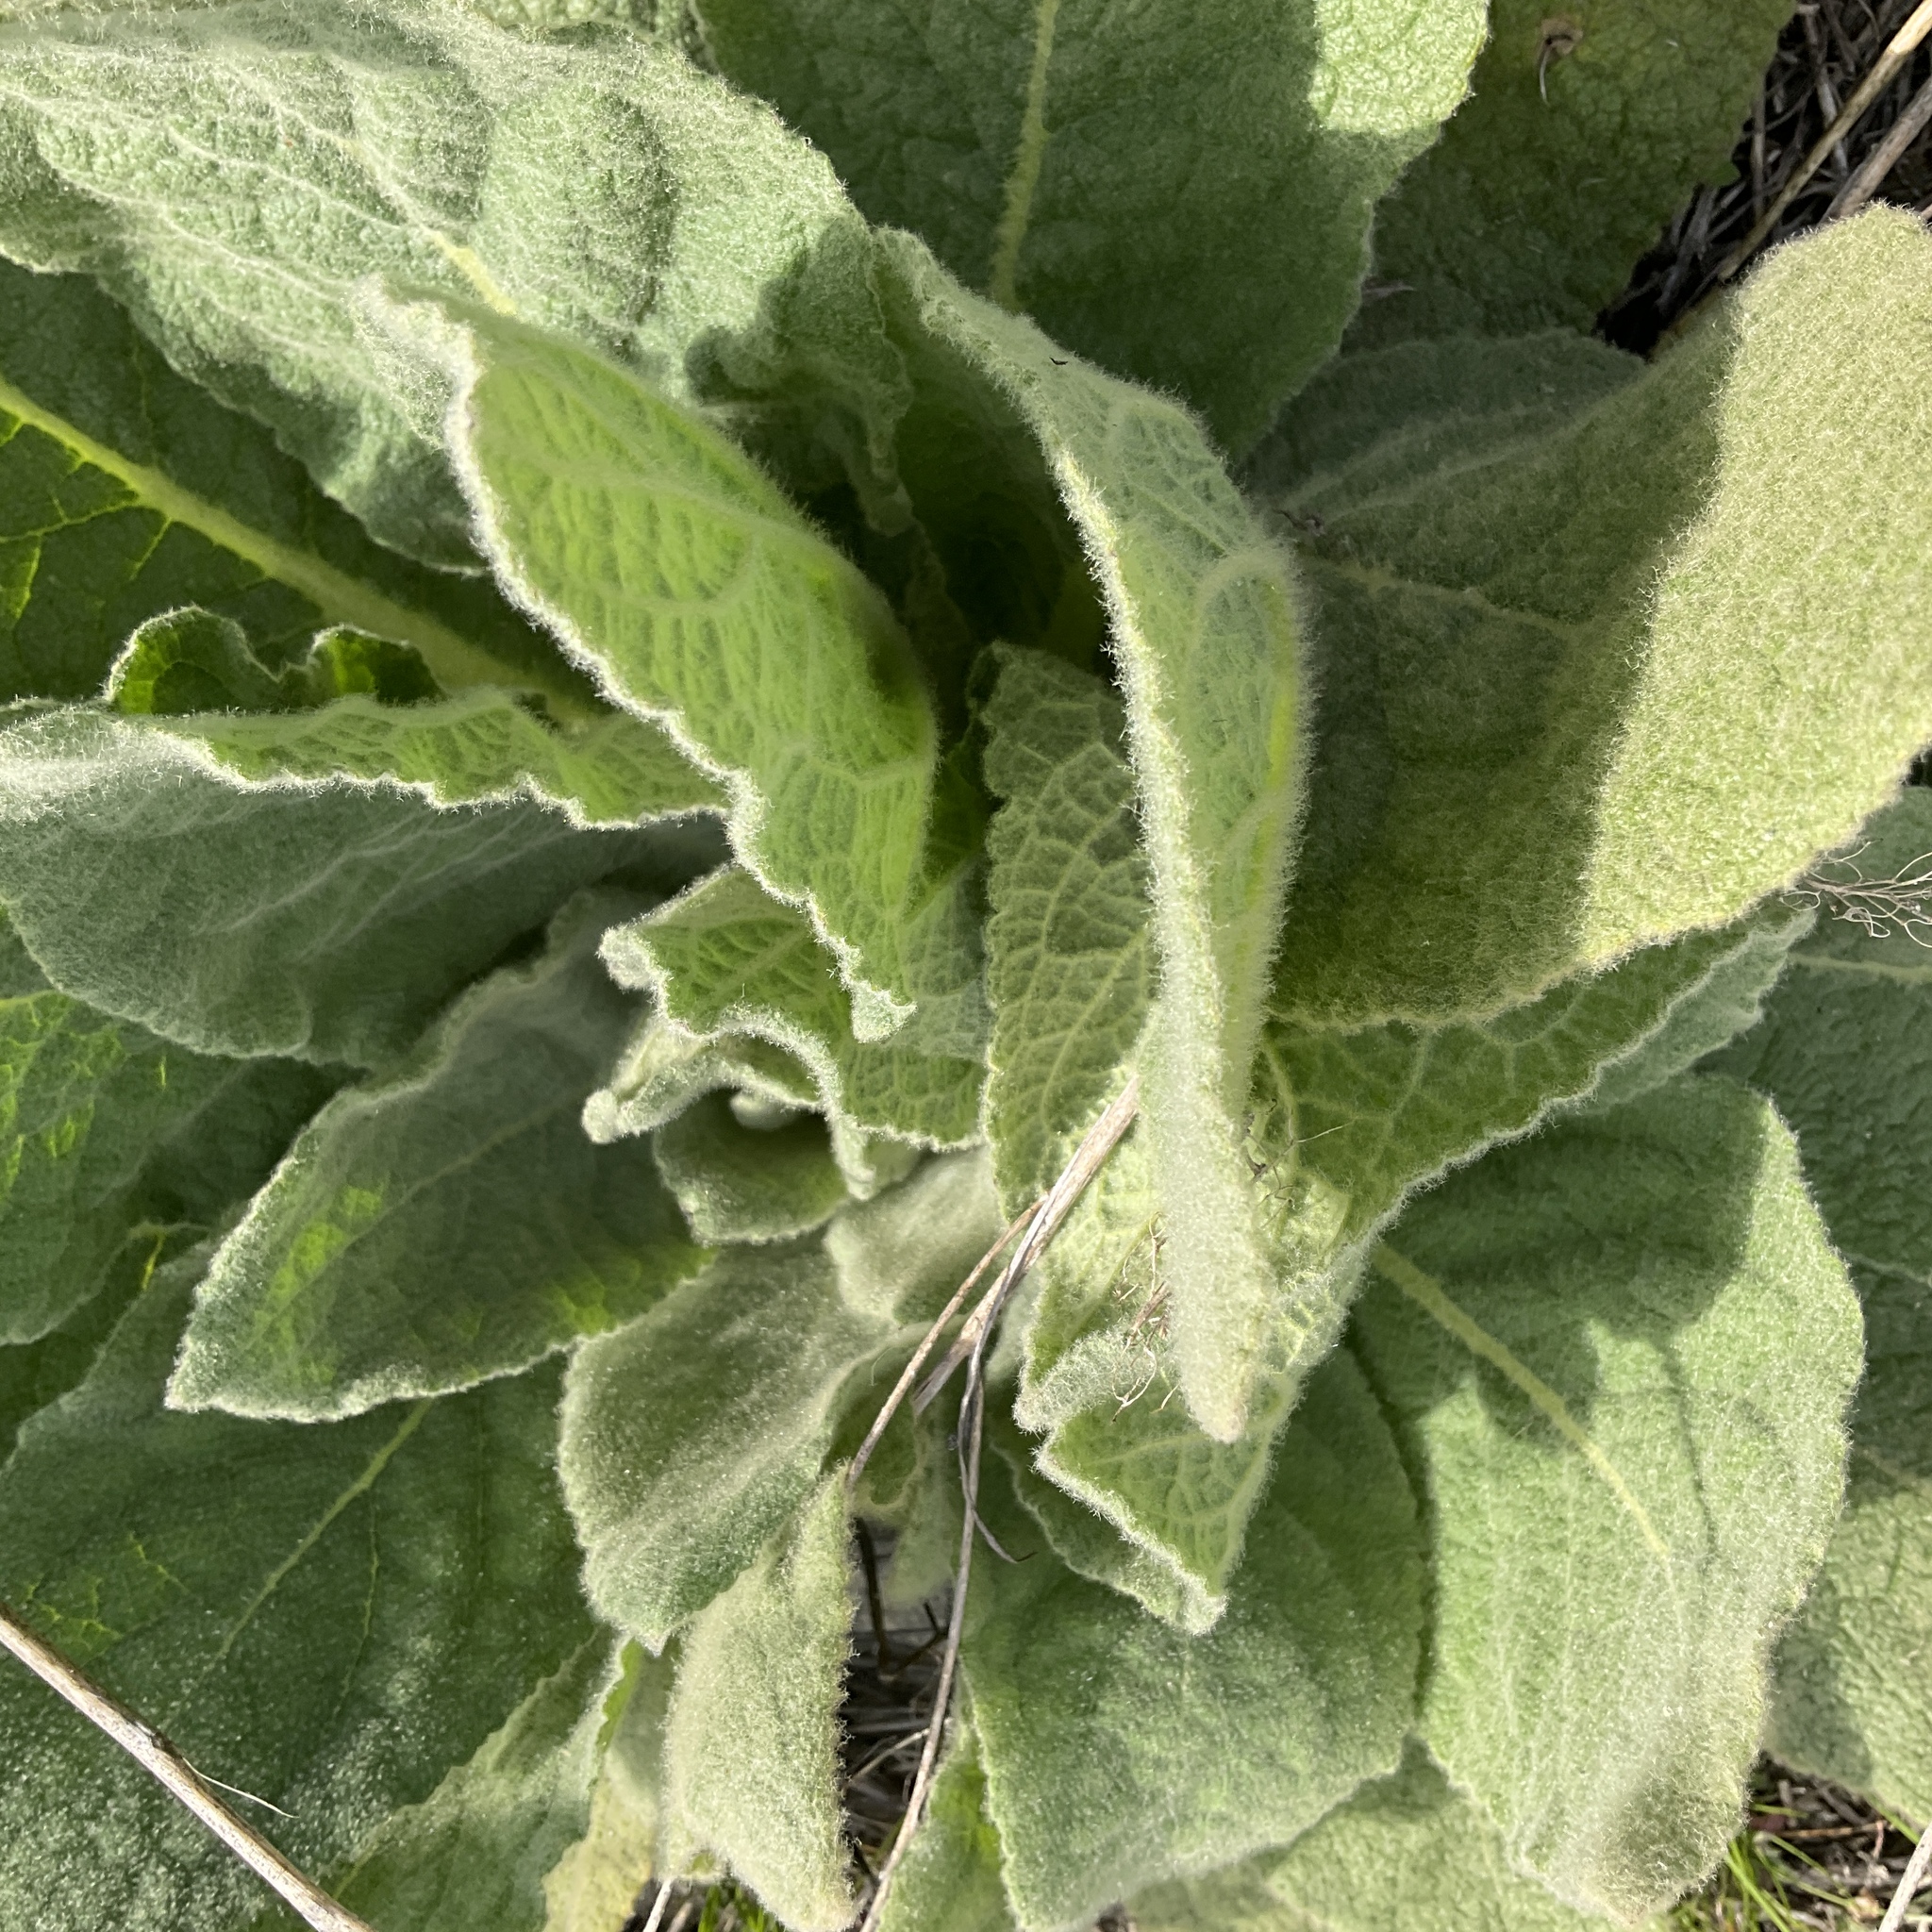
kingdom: Plantae
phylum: Tracheophyta
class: Magnoliopsida
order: Lamiales
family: Scrophulariaceae
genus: Verbascum
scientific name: Verbascum thapsus
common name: Common mullein
